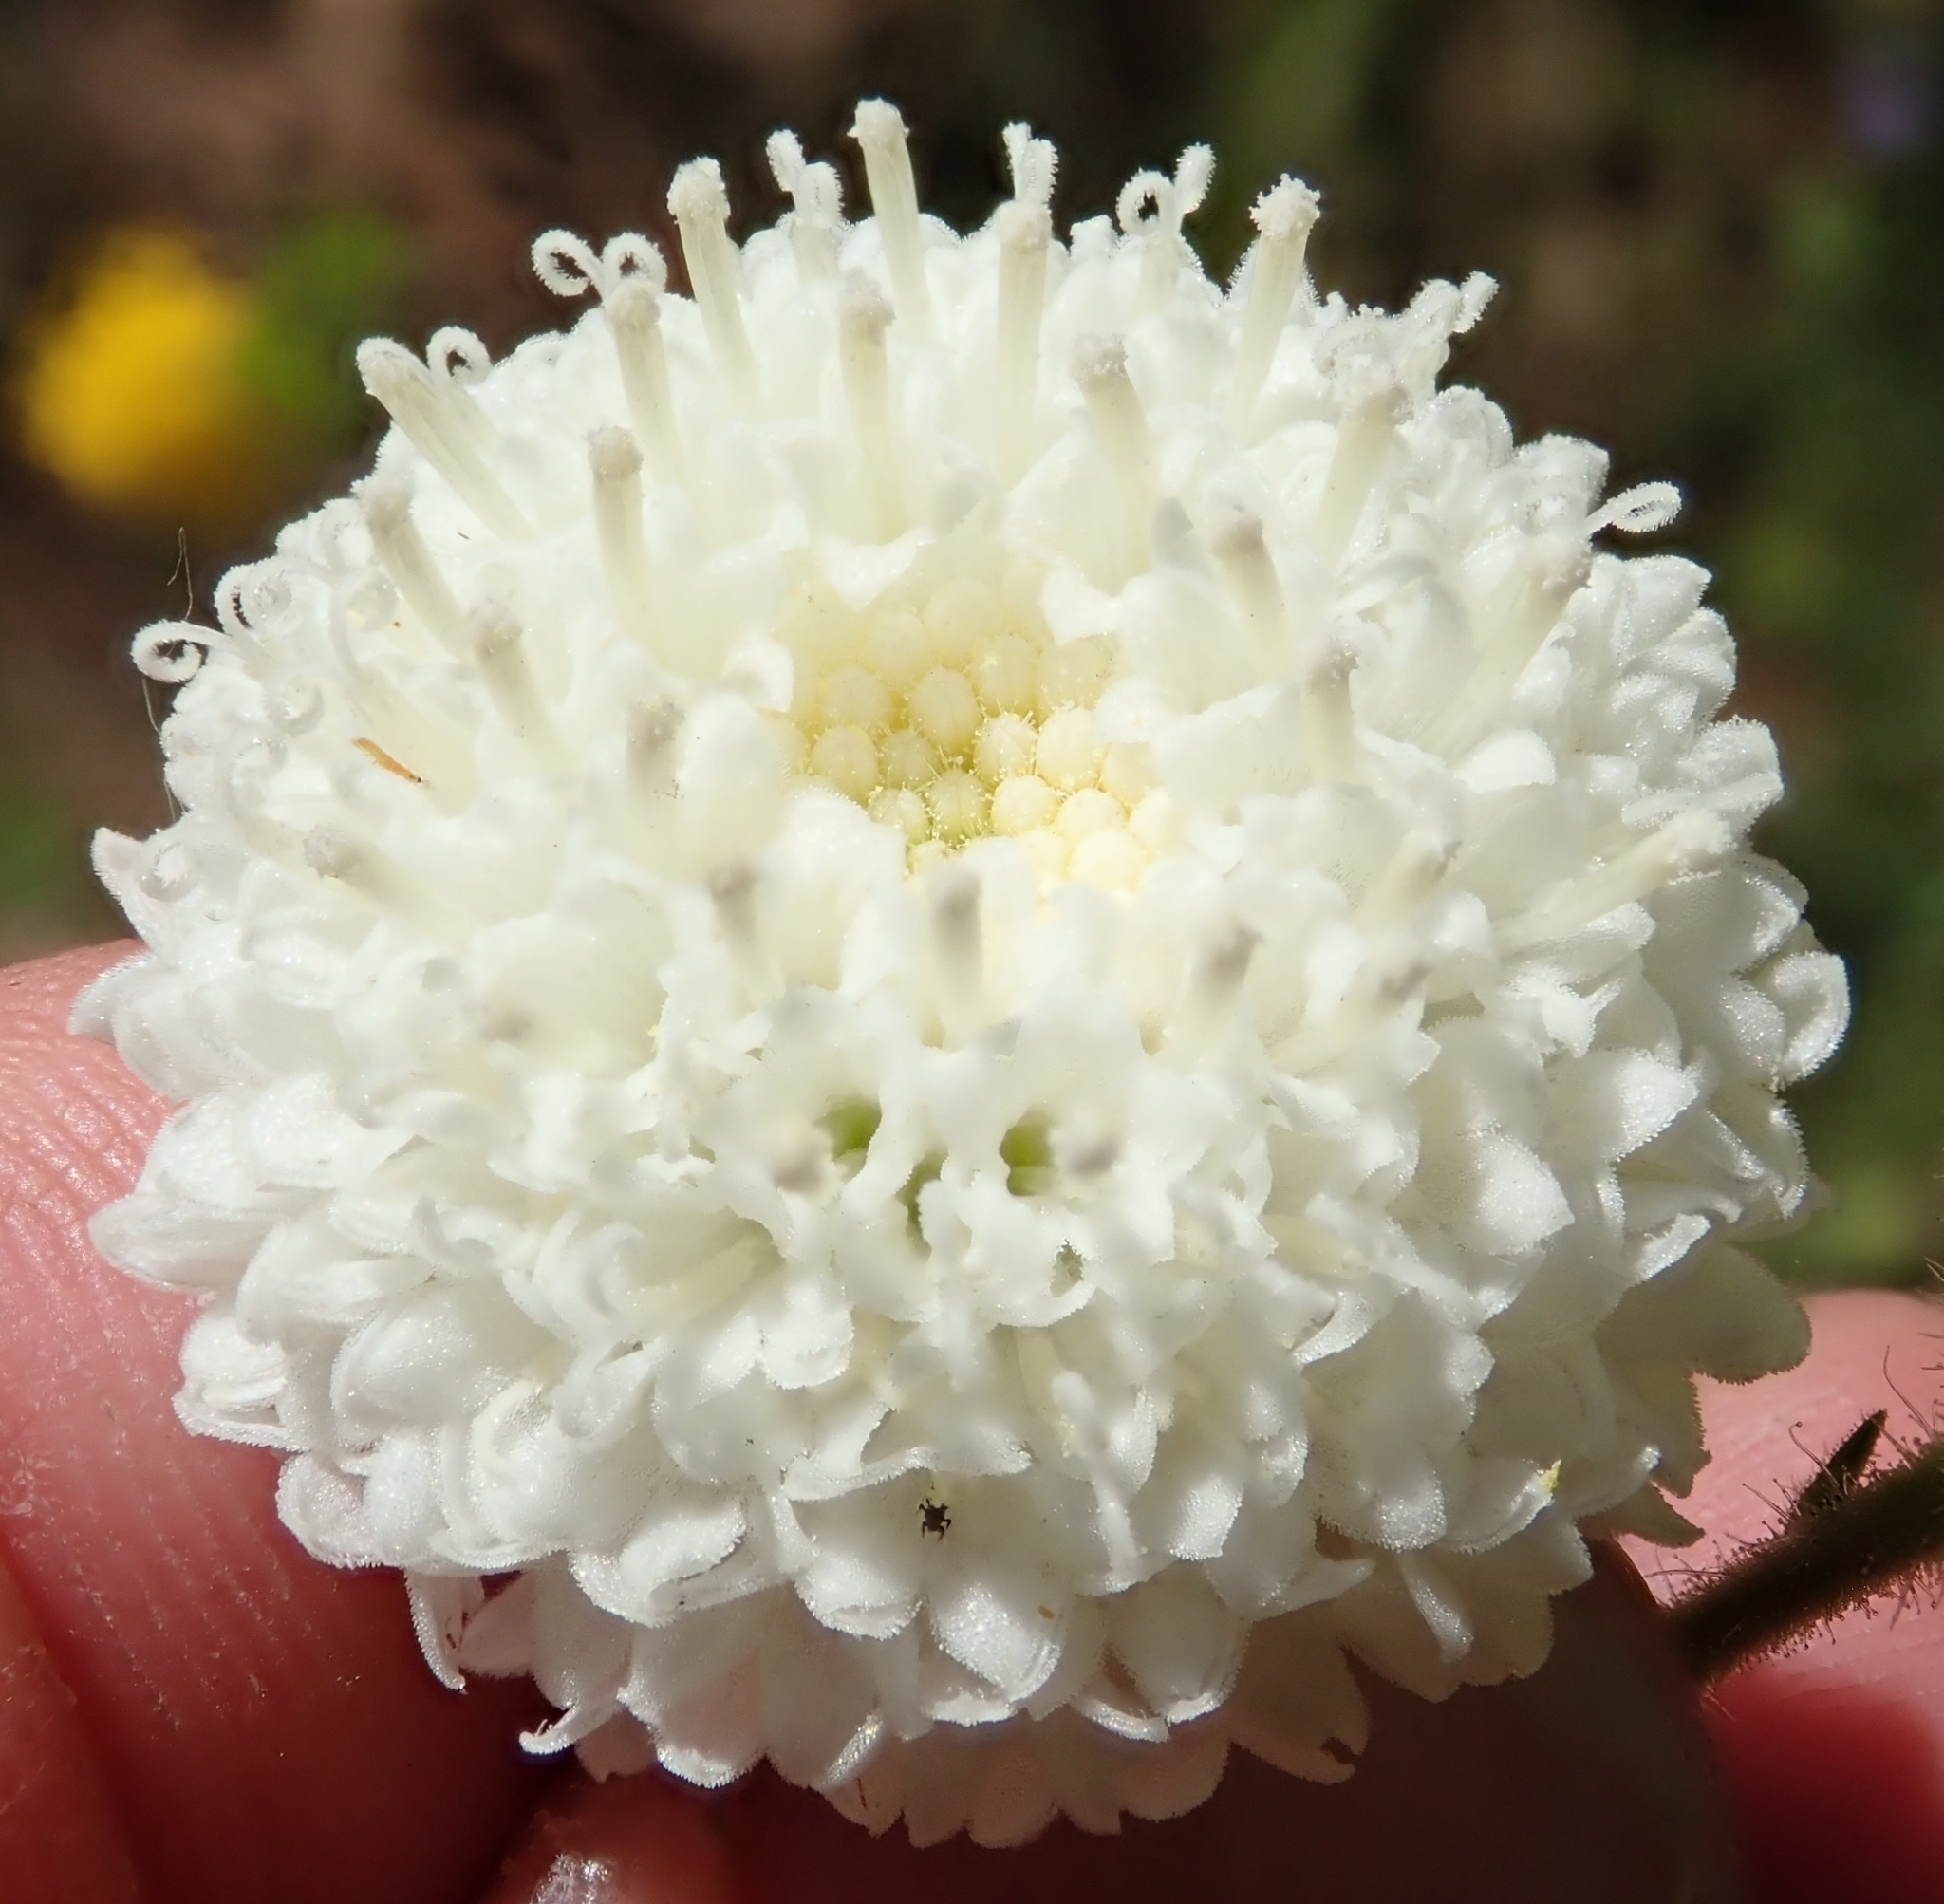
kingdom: Plantae
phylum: Tracheophyta
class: Magnoliopsida
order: Asterales
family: Asteraceae
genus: Chaenactis
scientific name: Chaenactis artemisiifolia
